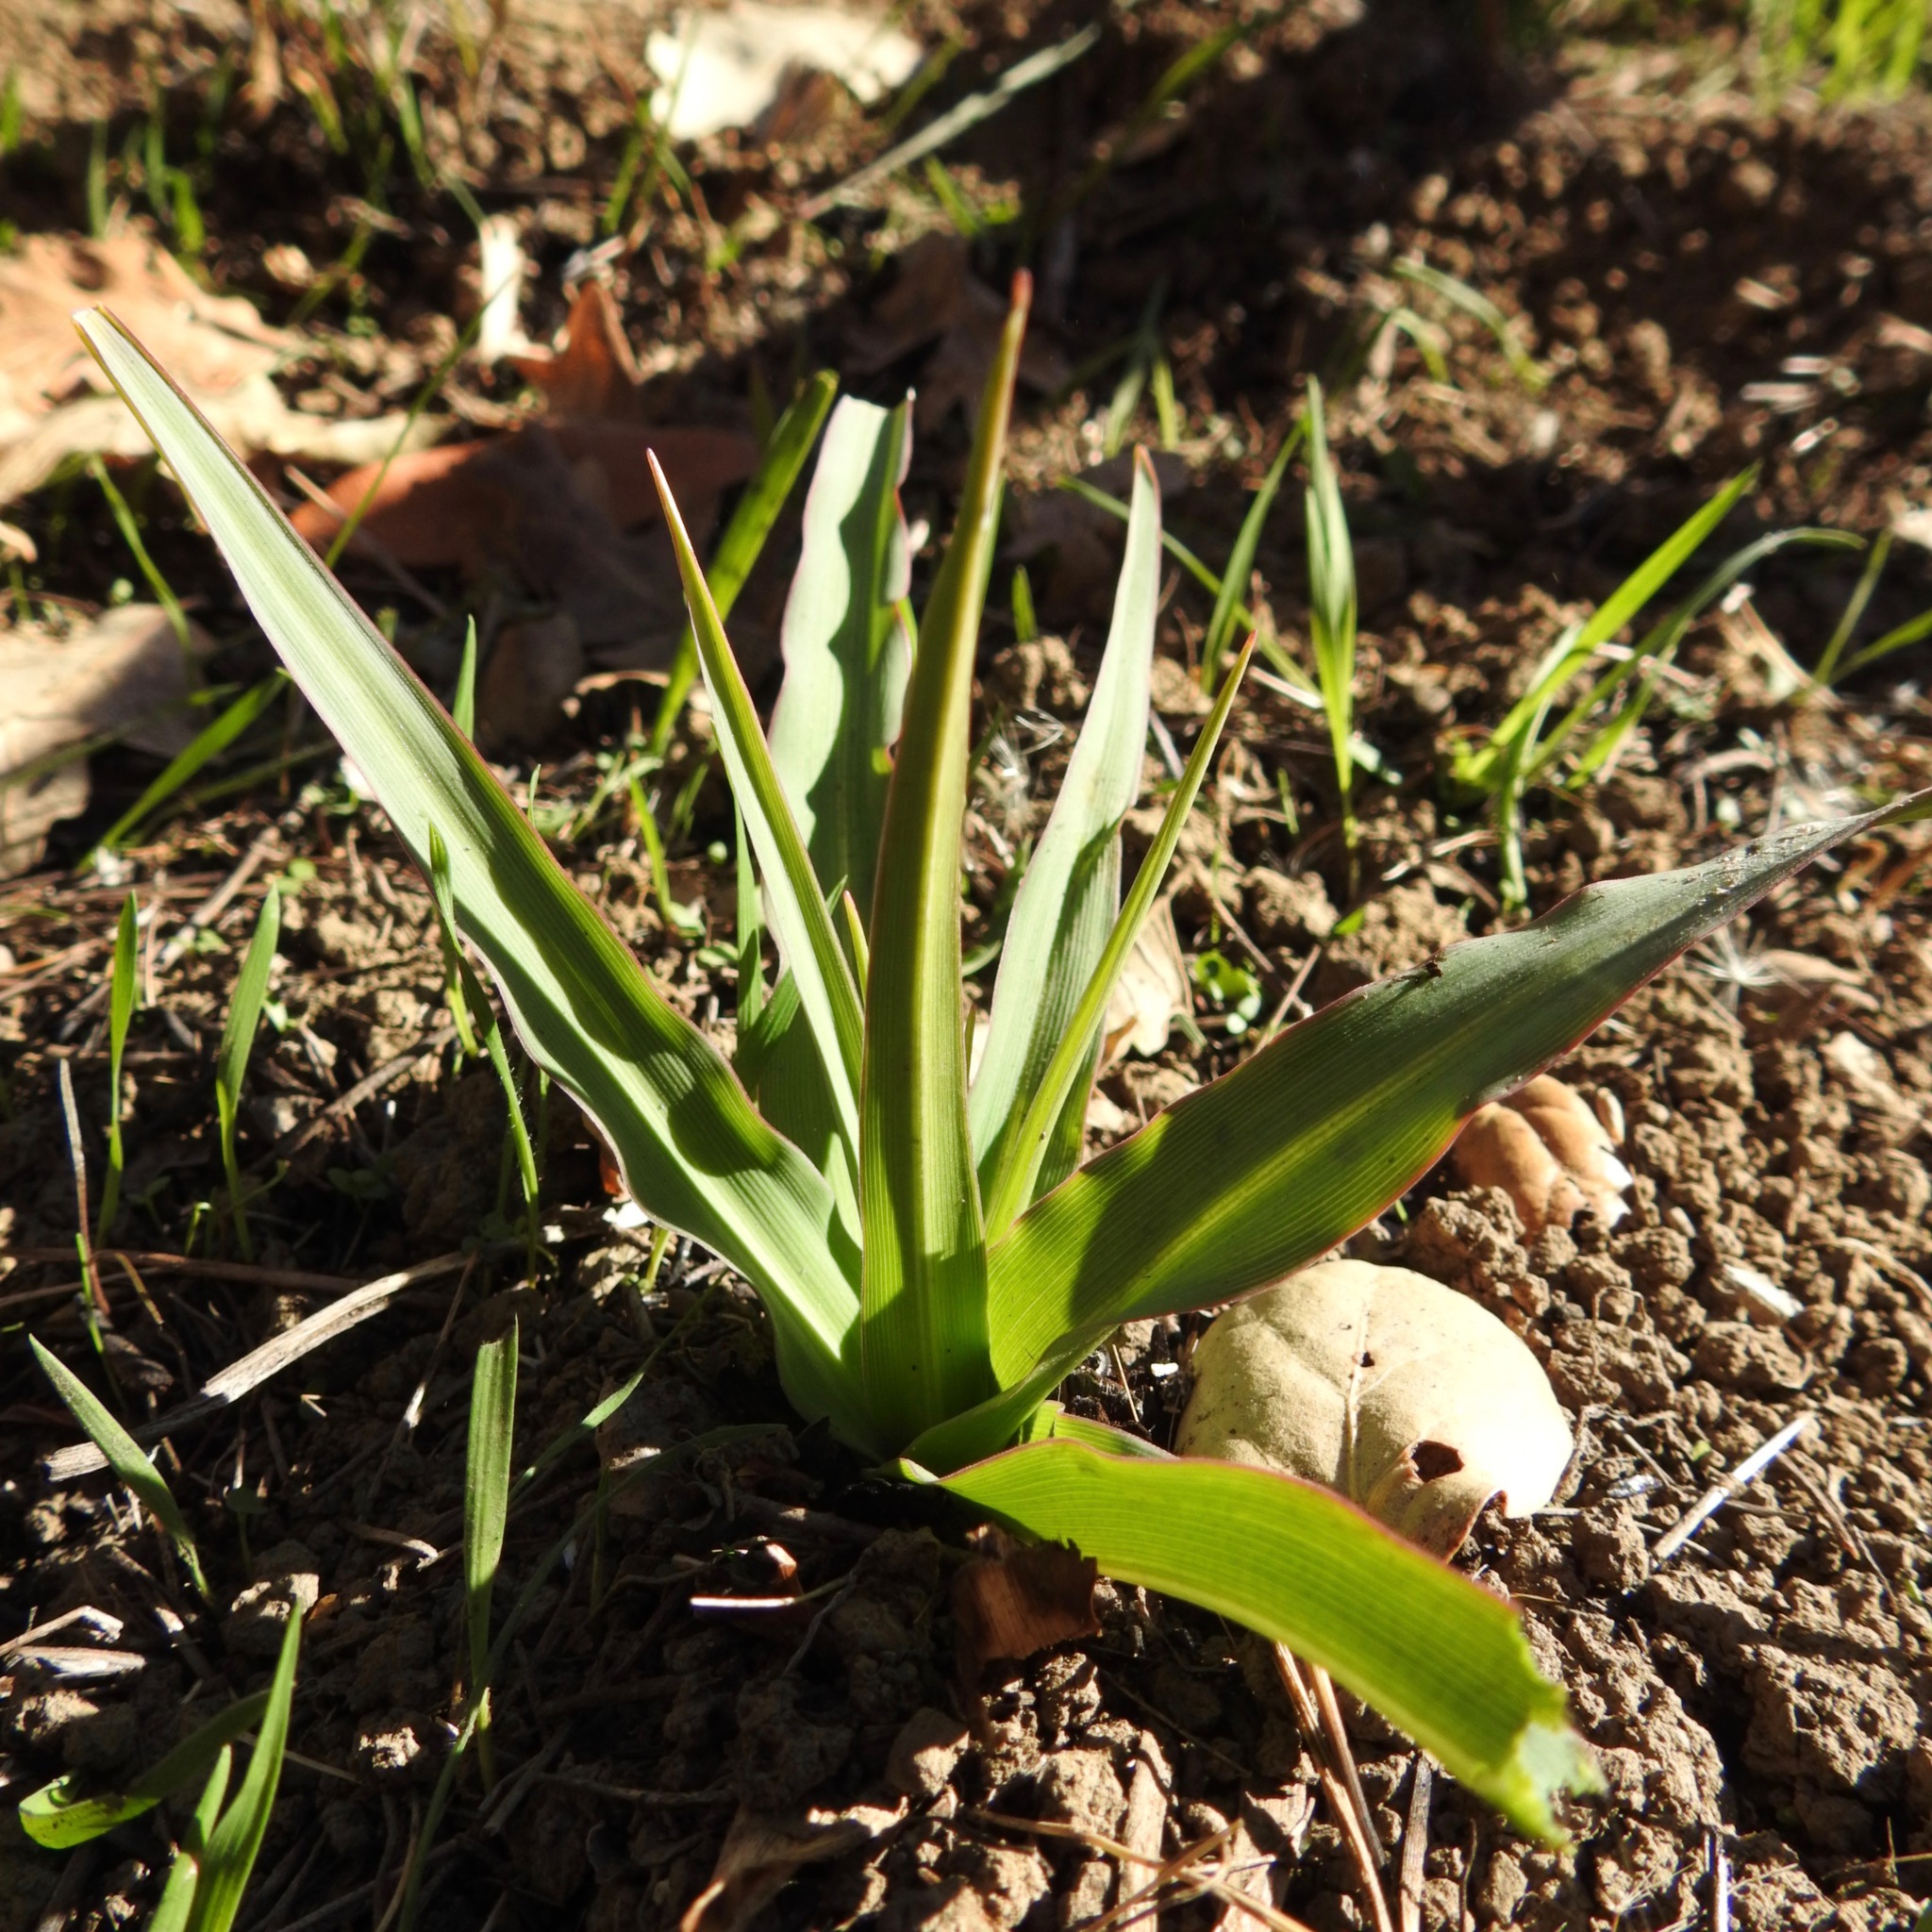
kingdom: Plantae
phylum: Tracheophyta
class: Liliopsida
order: Asparagales
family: Asparagaceae
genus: Chlorogalum
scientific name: Chlorogalum pomeridianum
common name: Amole
